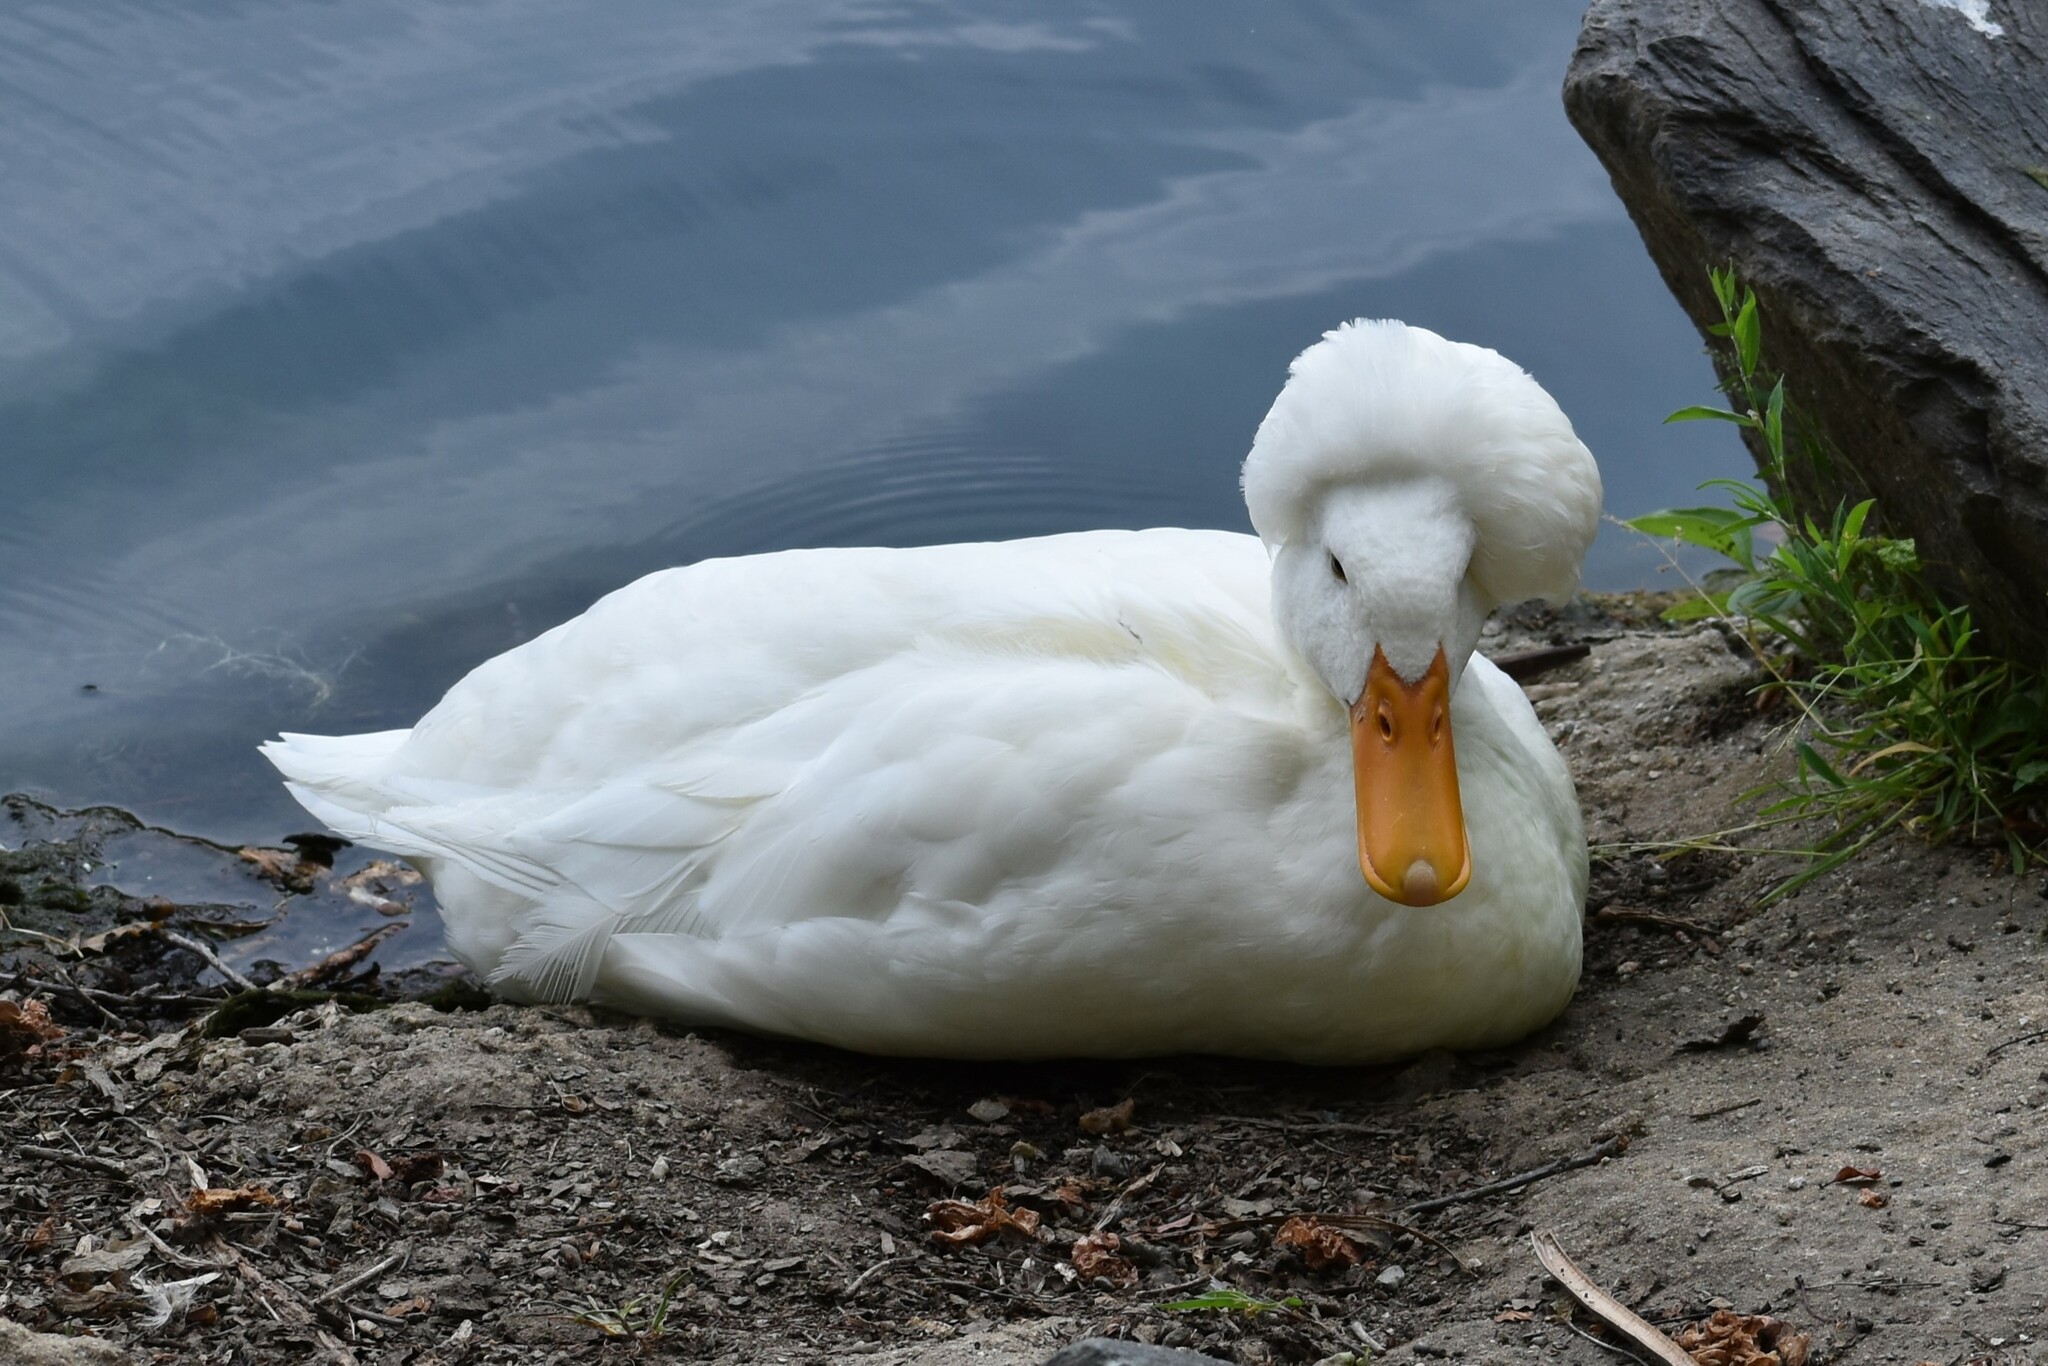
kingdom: Animalia
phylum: Chordata
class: Aves
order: Anseriformes
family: Anatidae
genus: Anas
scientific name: Anas platyrhynchos
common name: Mallard
